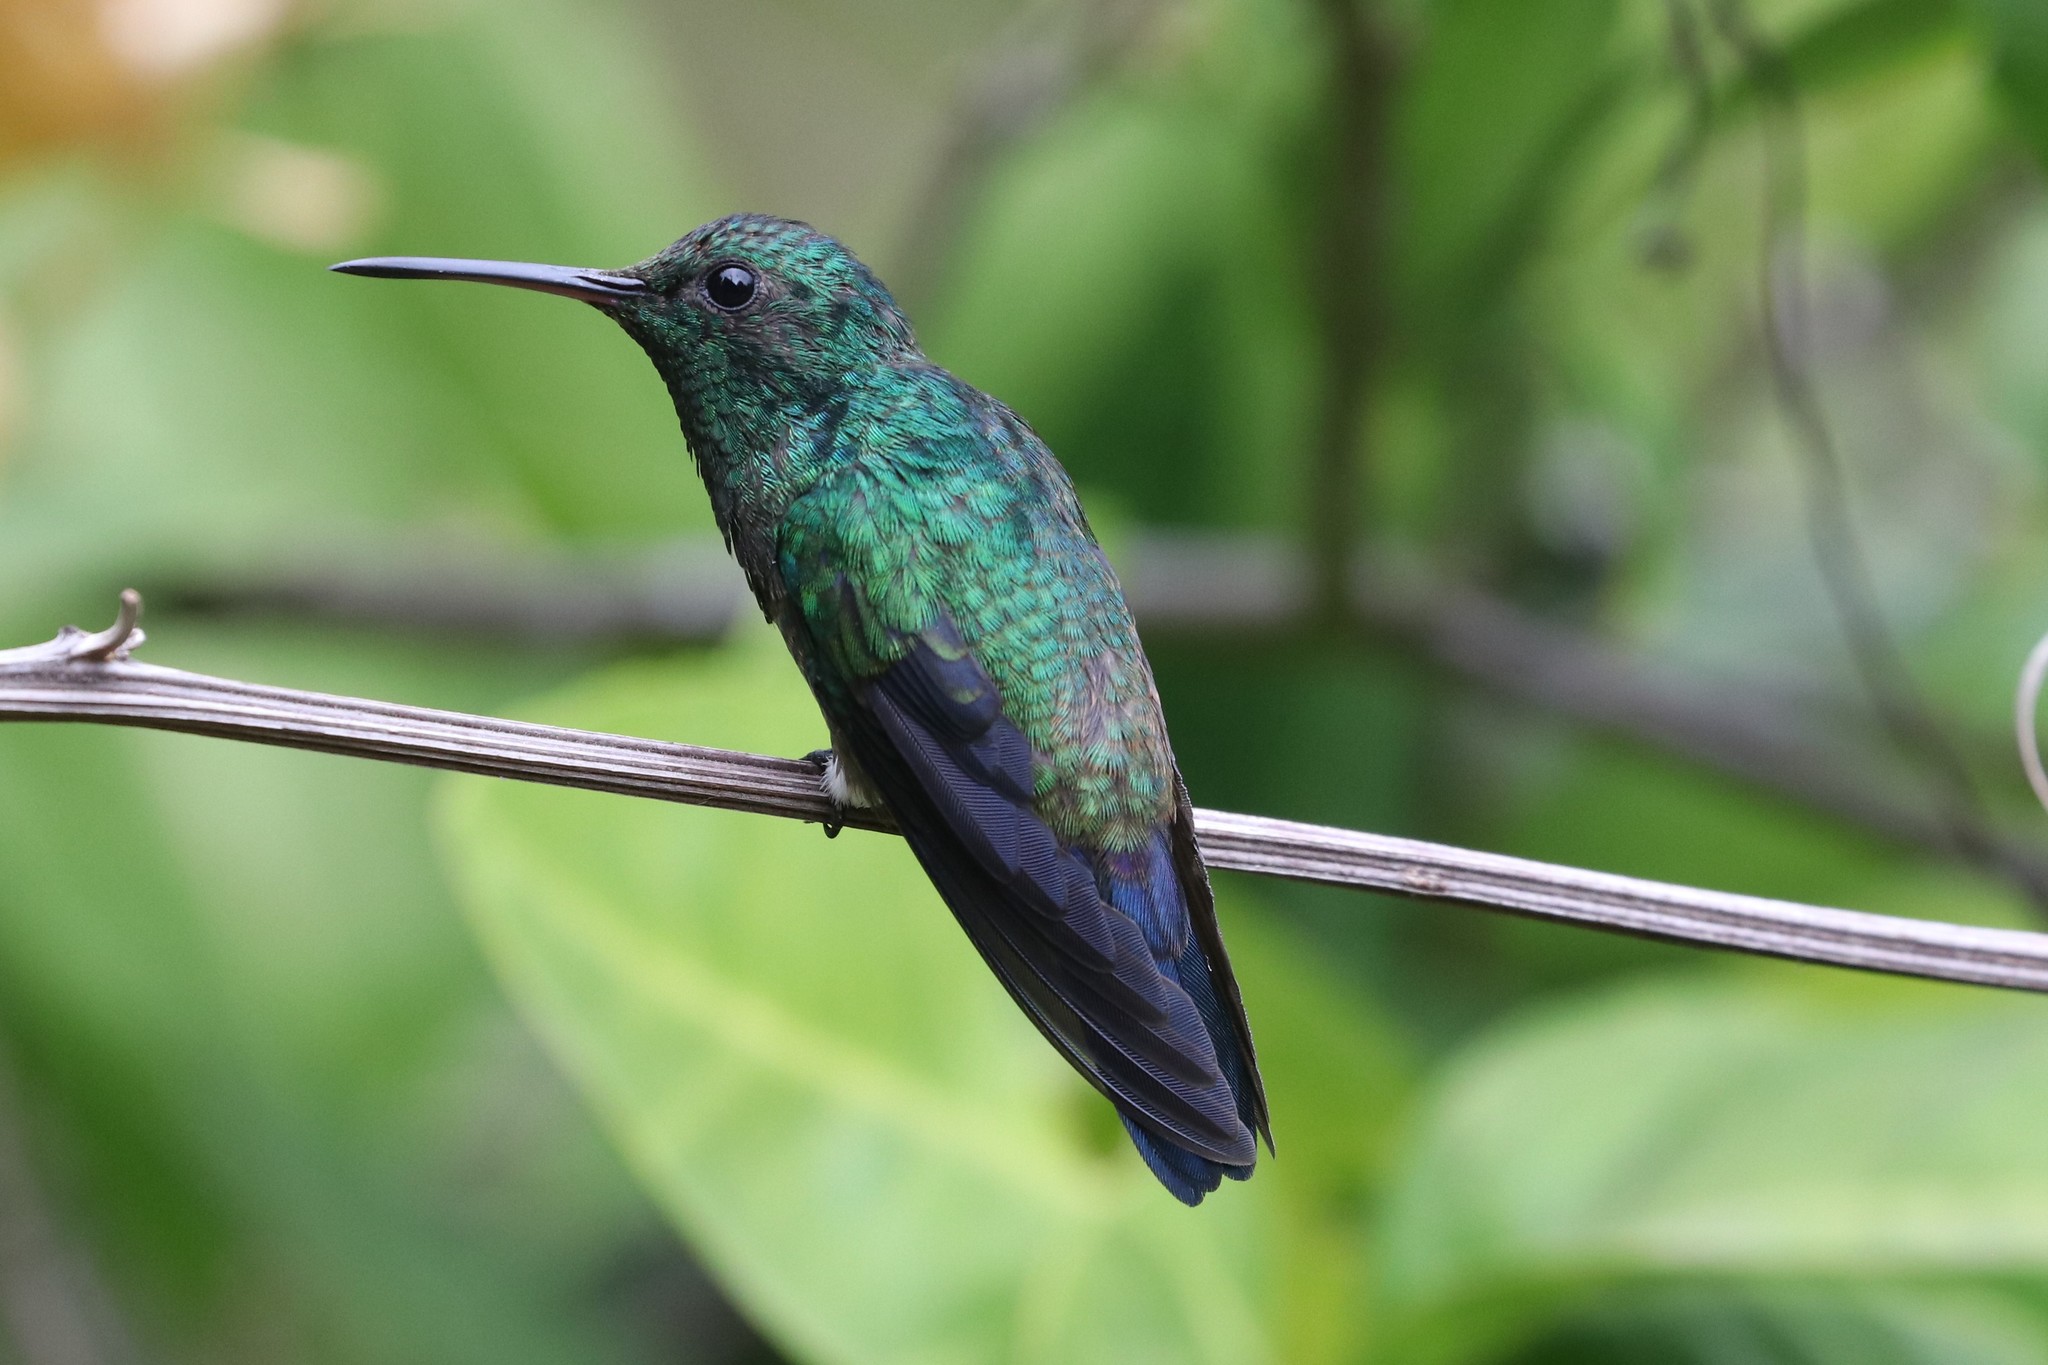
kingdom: Animalia
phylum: Chordata
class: Aves
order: Apodiformes
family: Trochilidae
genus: Saucerottia
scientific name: Saucerottia saucerottei
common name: Steely-vented hummingbird
